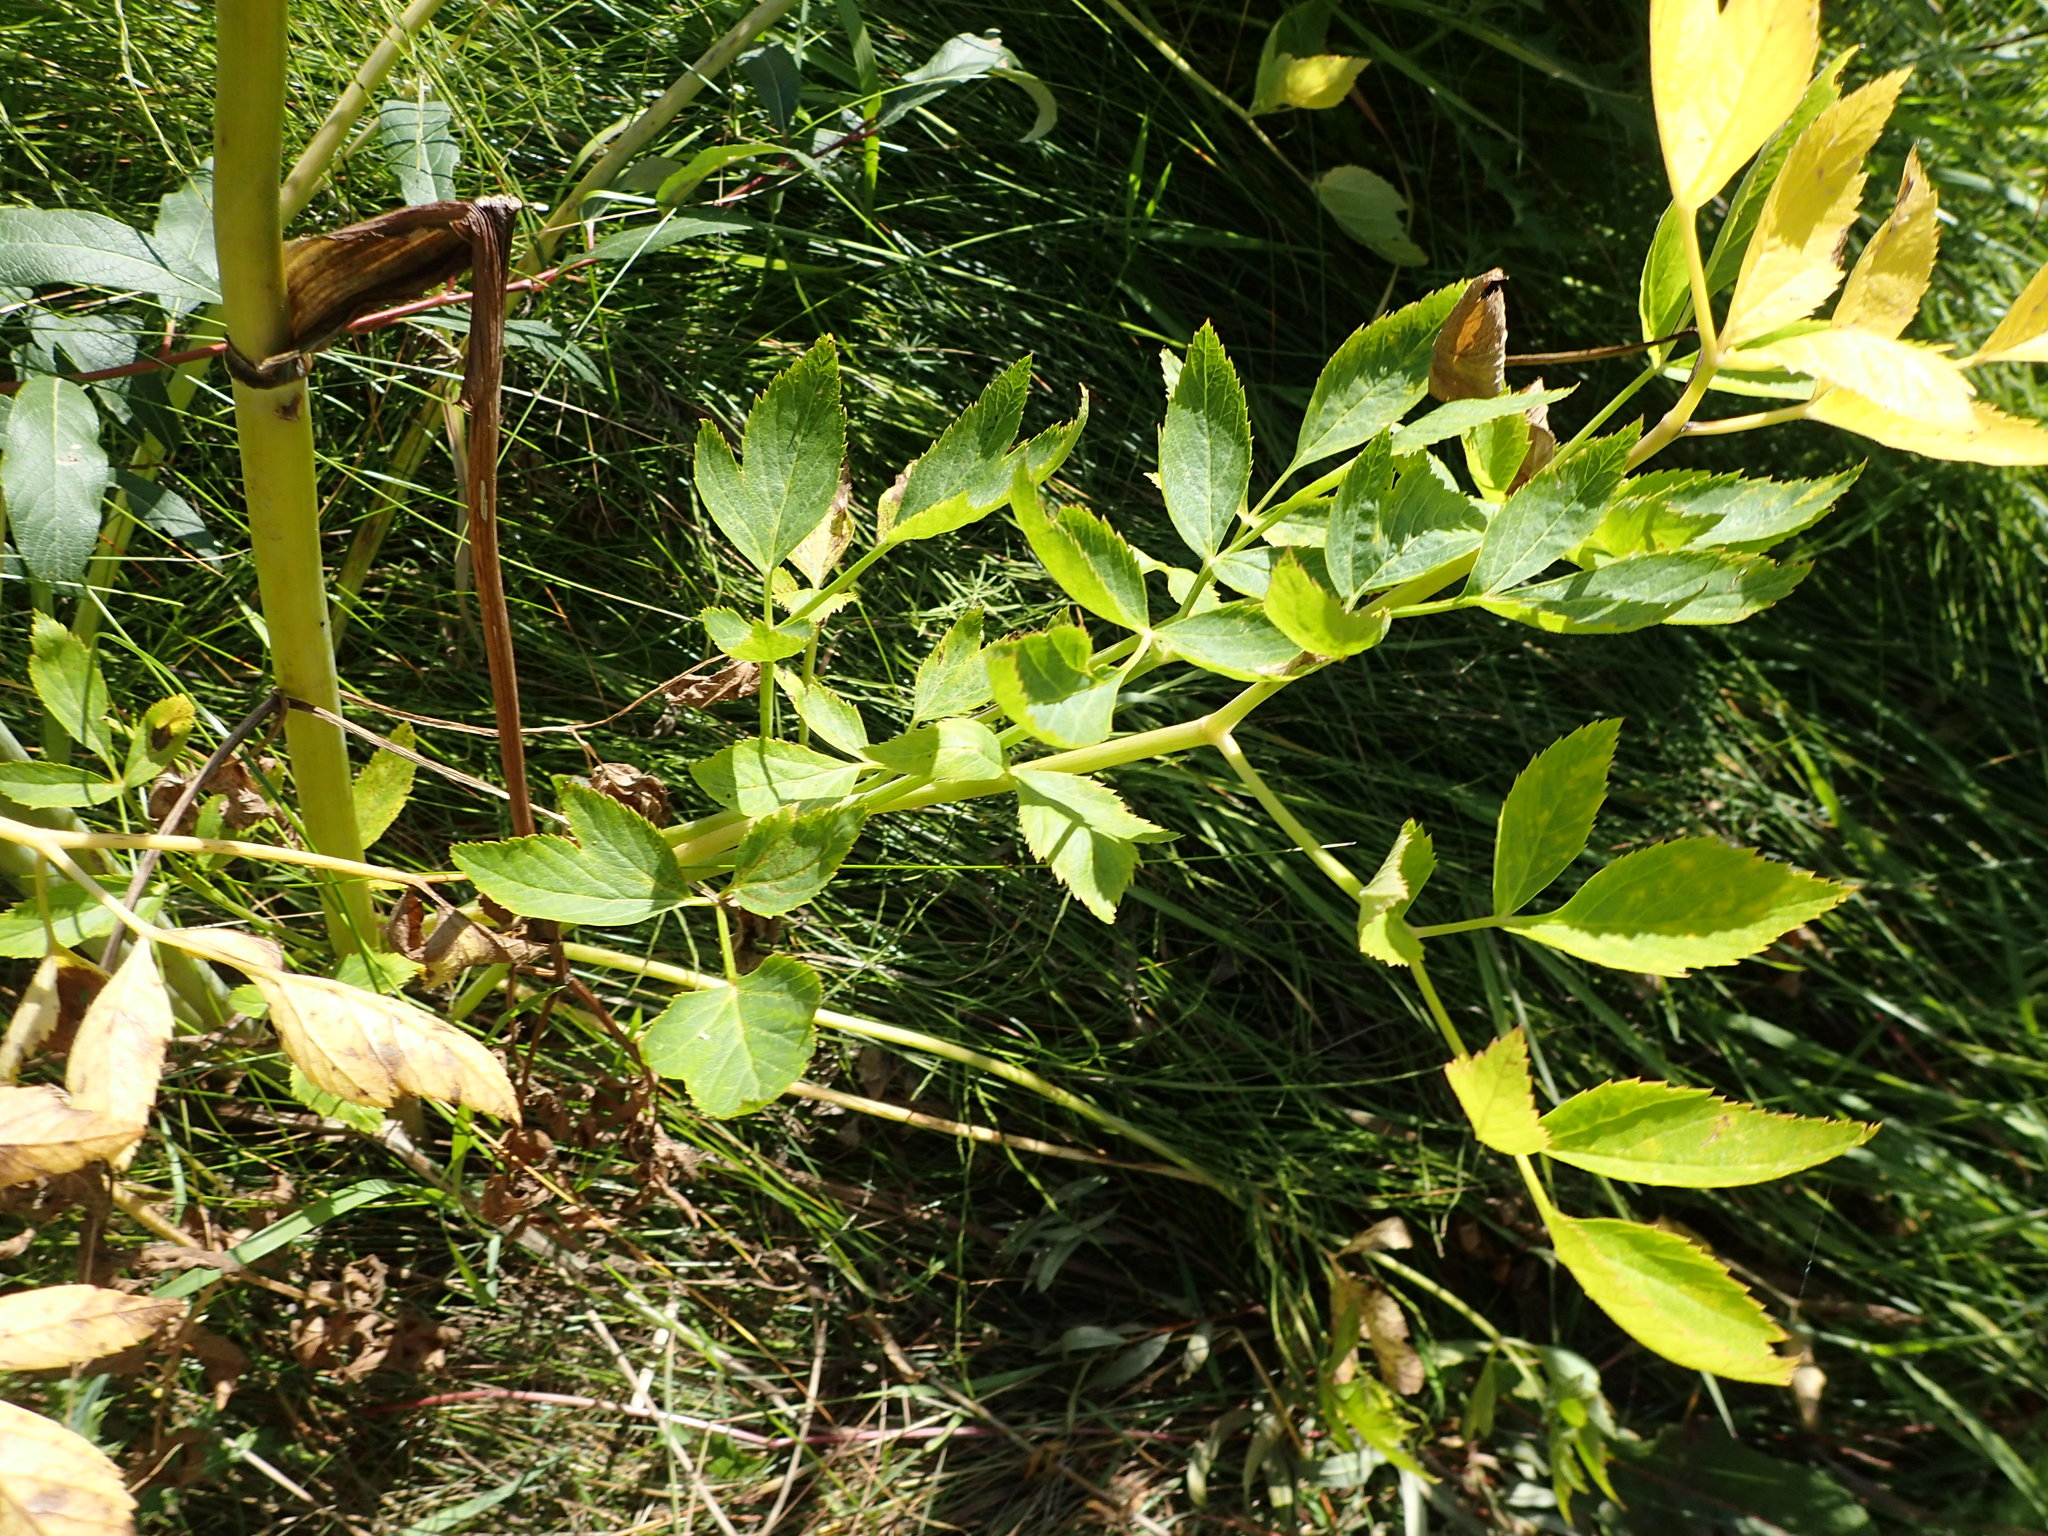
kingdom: Plantae
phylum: Tracheophyta
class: Magnoliopsida
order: Apiales
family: Apiaceae
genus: Angelica
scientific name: Angelica arguta
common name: Lyall's angelica
